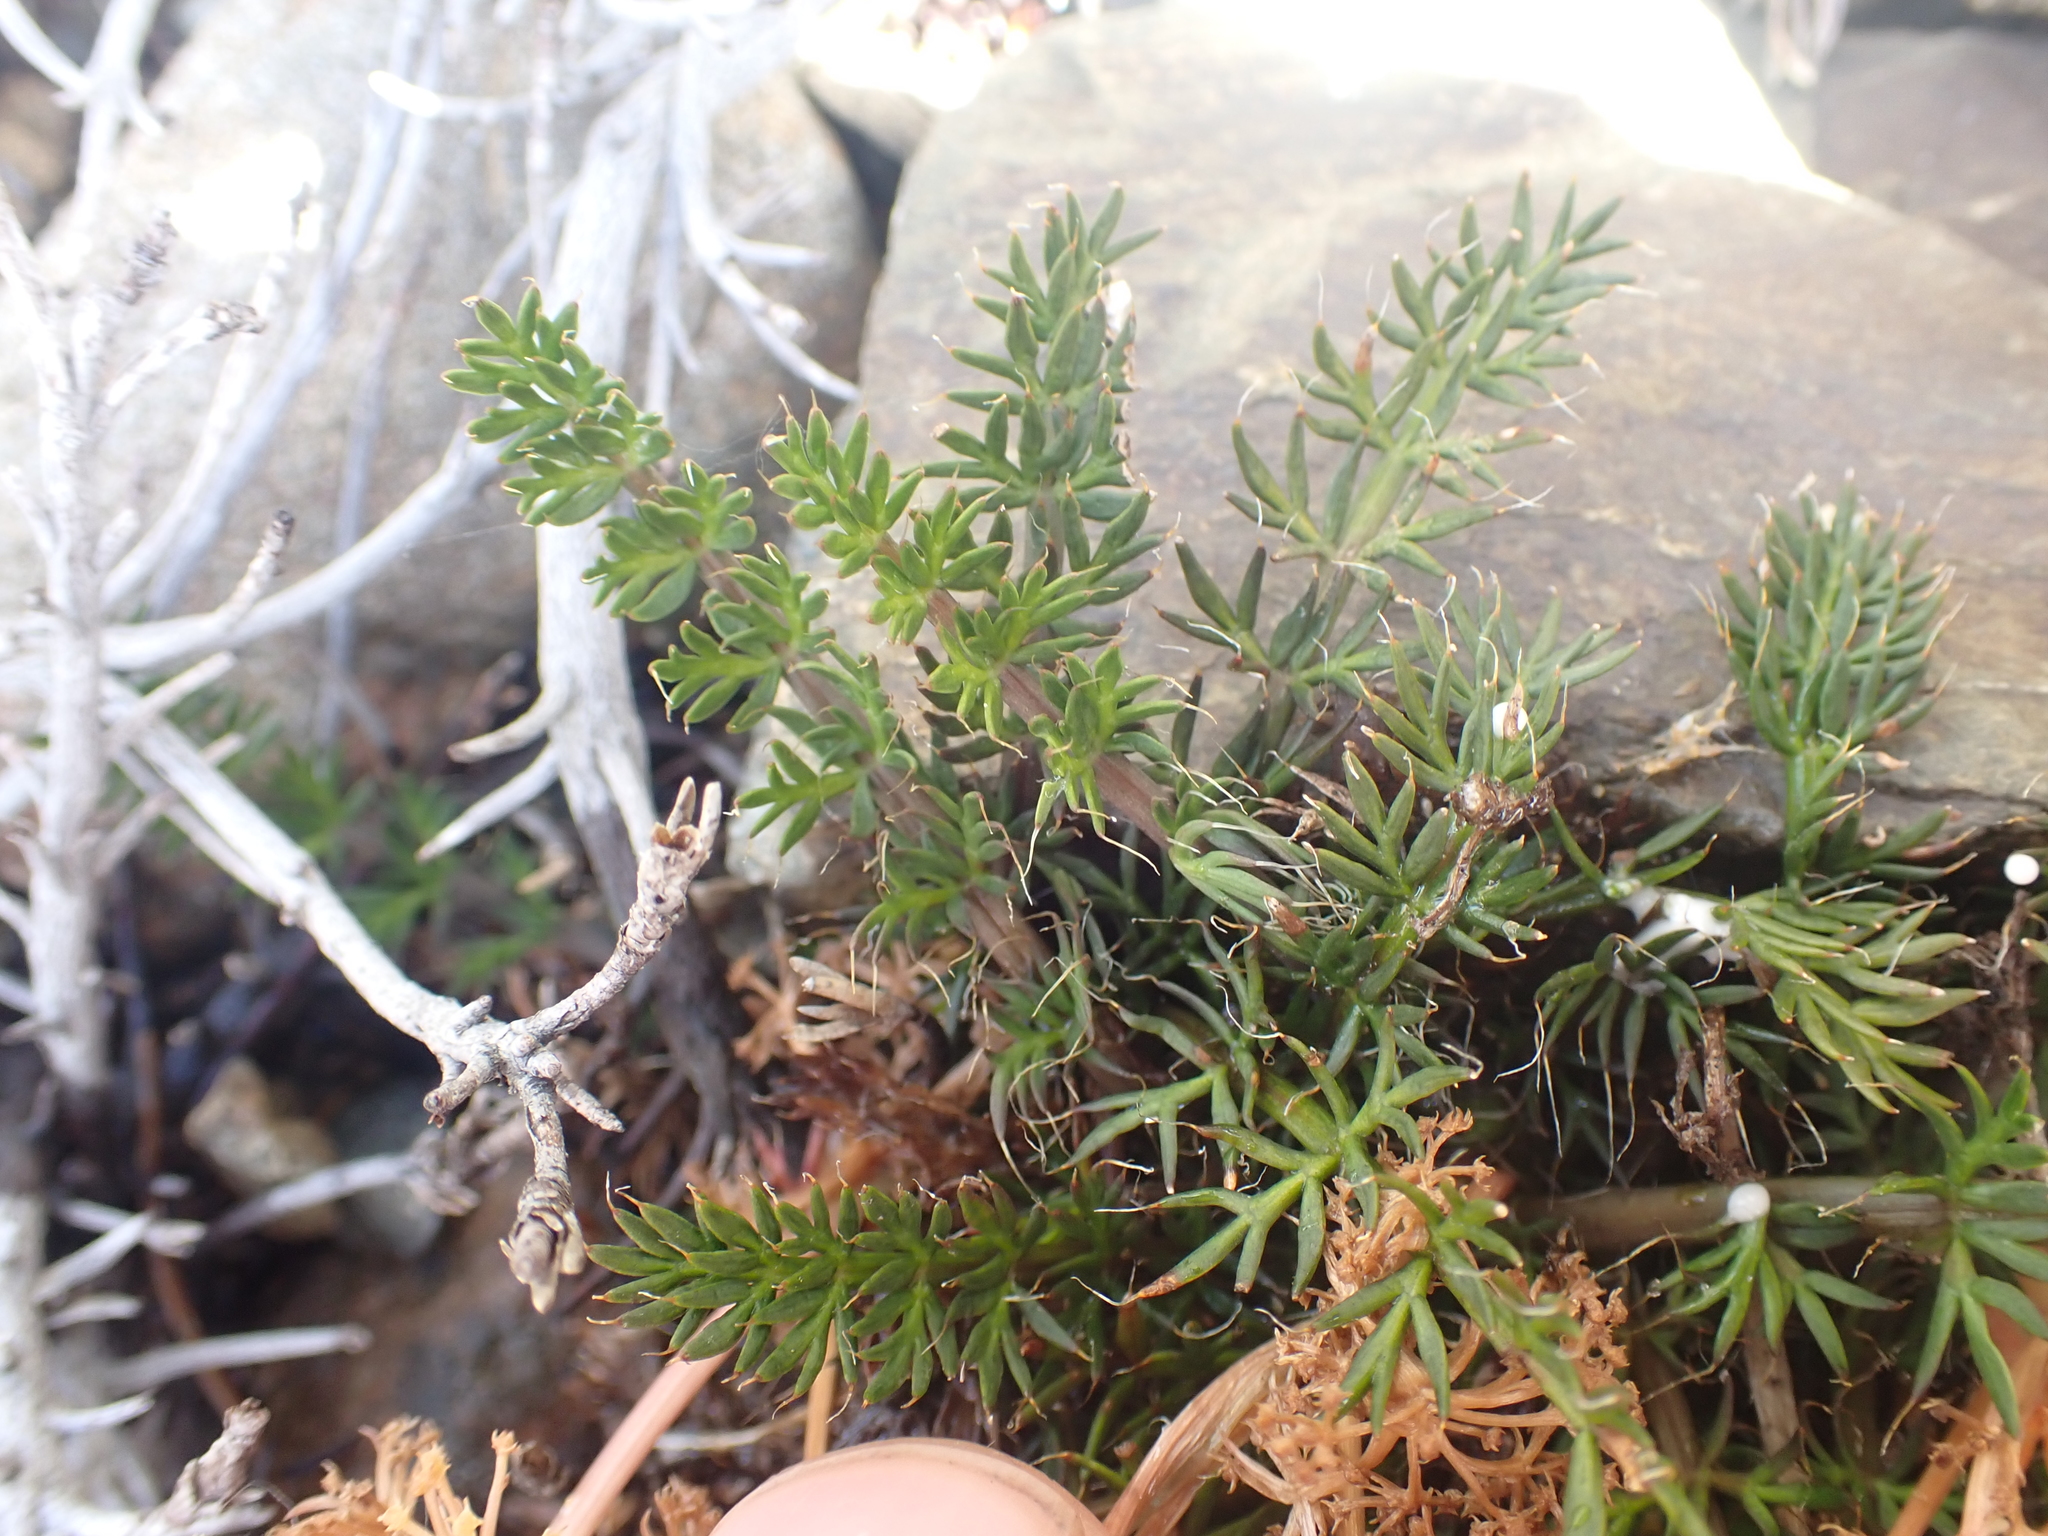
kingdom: Plantae
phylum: Tracheophyta
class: Magnoliopsida
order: Apiales
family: Apiaceae
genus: Anisotome
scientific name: Anisotome flexuosa
